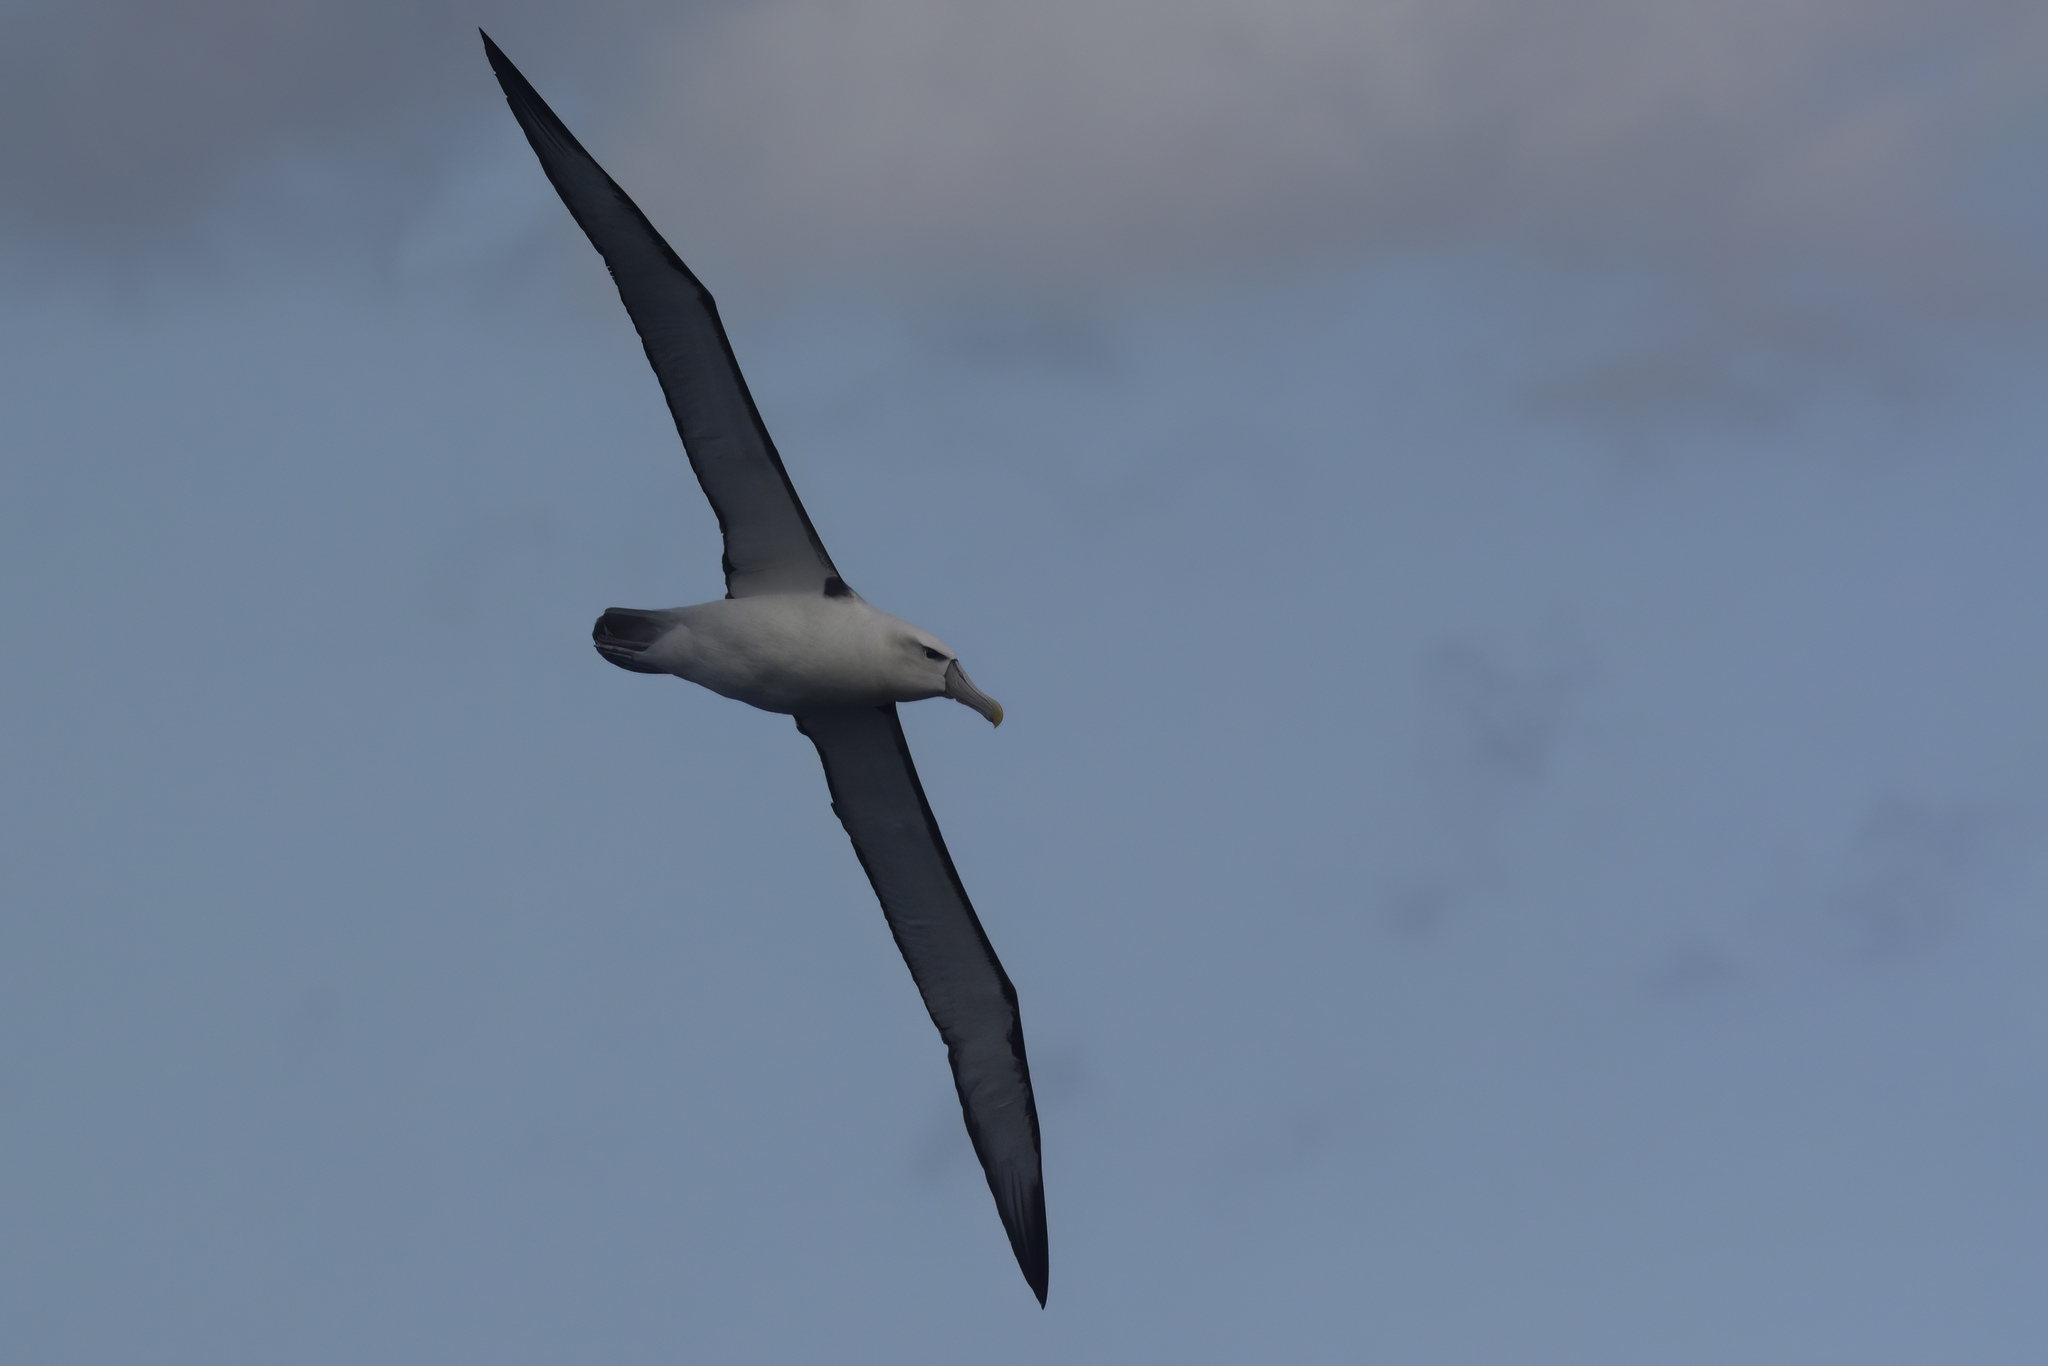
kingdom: Animalia
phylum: Chordata
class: Aves
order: Procellariiformes
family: Diomedeidae
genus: Thalassarche
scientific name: Thalassarche cauta
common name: Shy albatross
